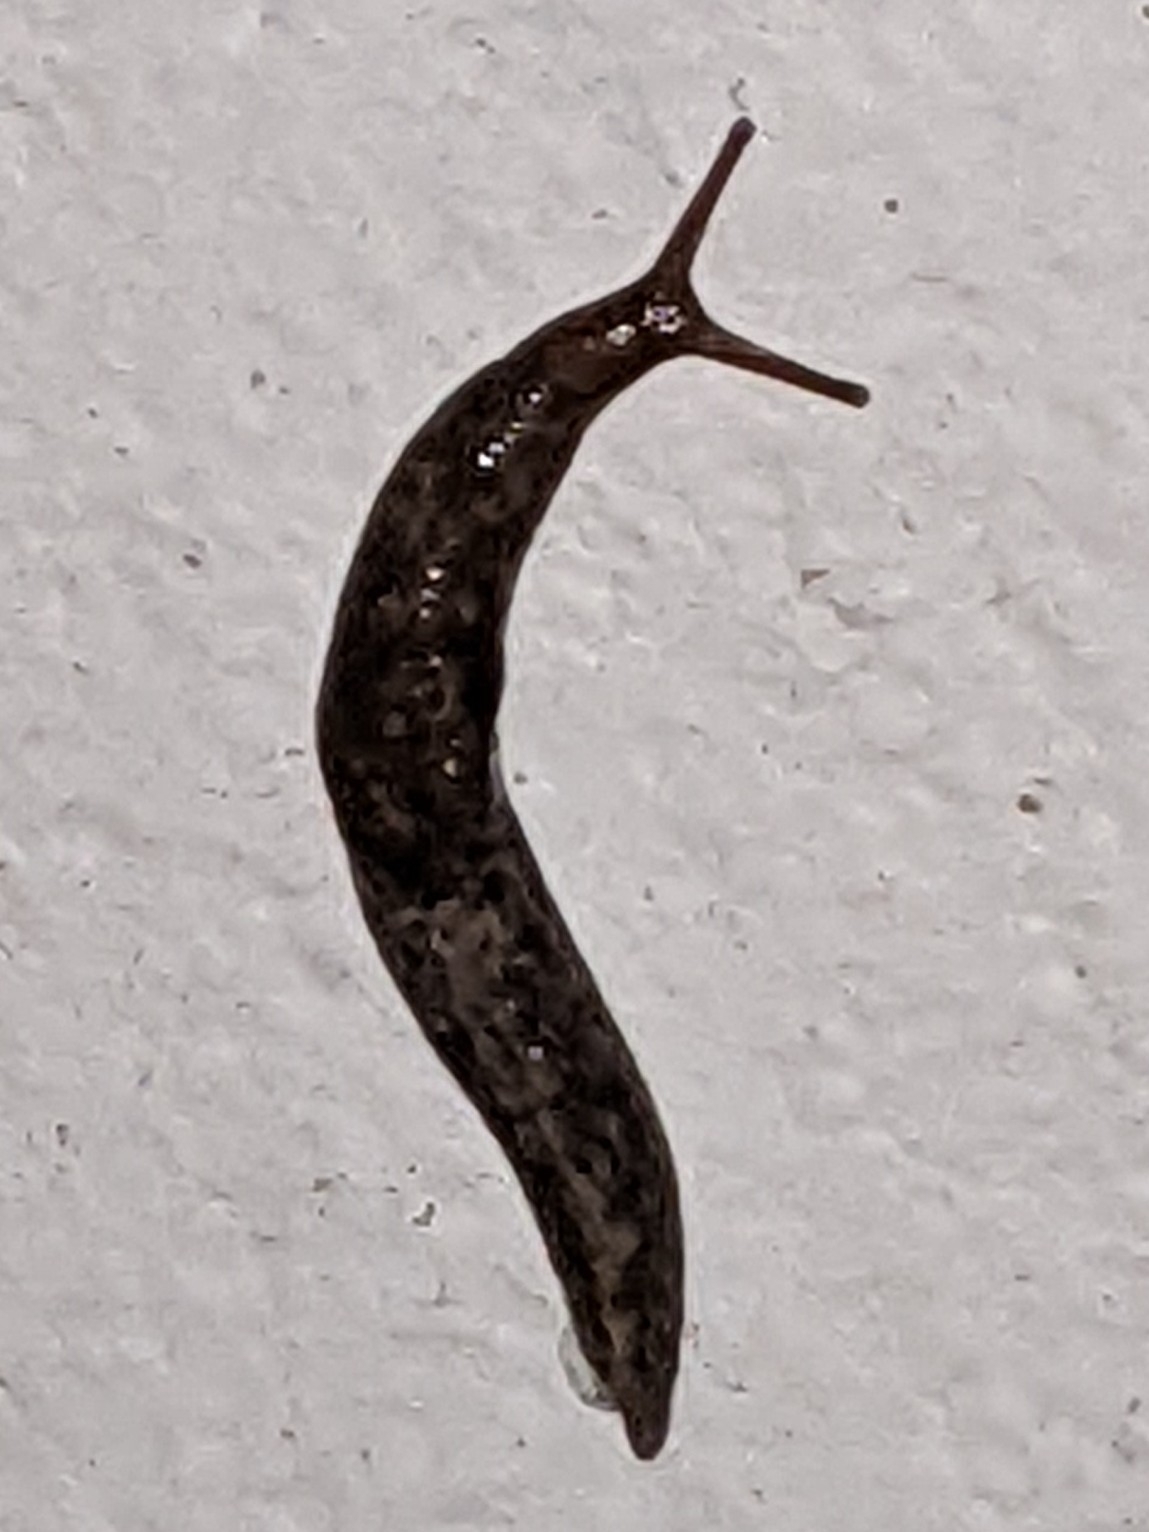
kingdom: Animalia
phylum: Mollusca
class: Gastropoda
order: Stylommatophora
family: Agriolimacidae
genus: Deroceras
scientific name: Deroceras reticulatum
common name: Gray field slug
